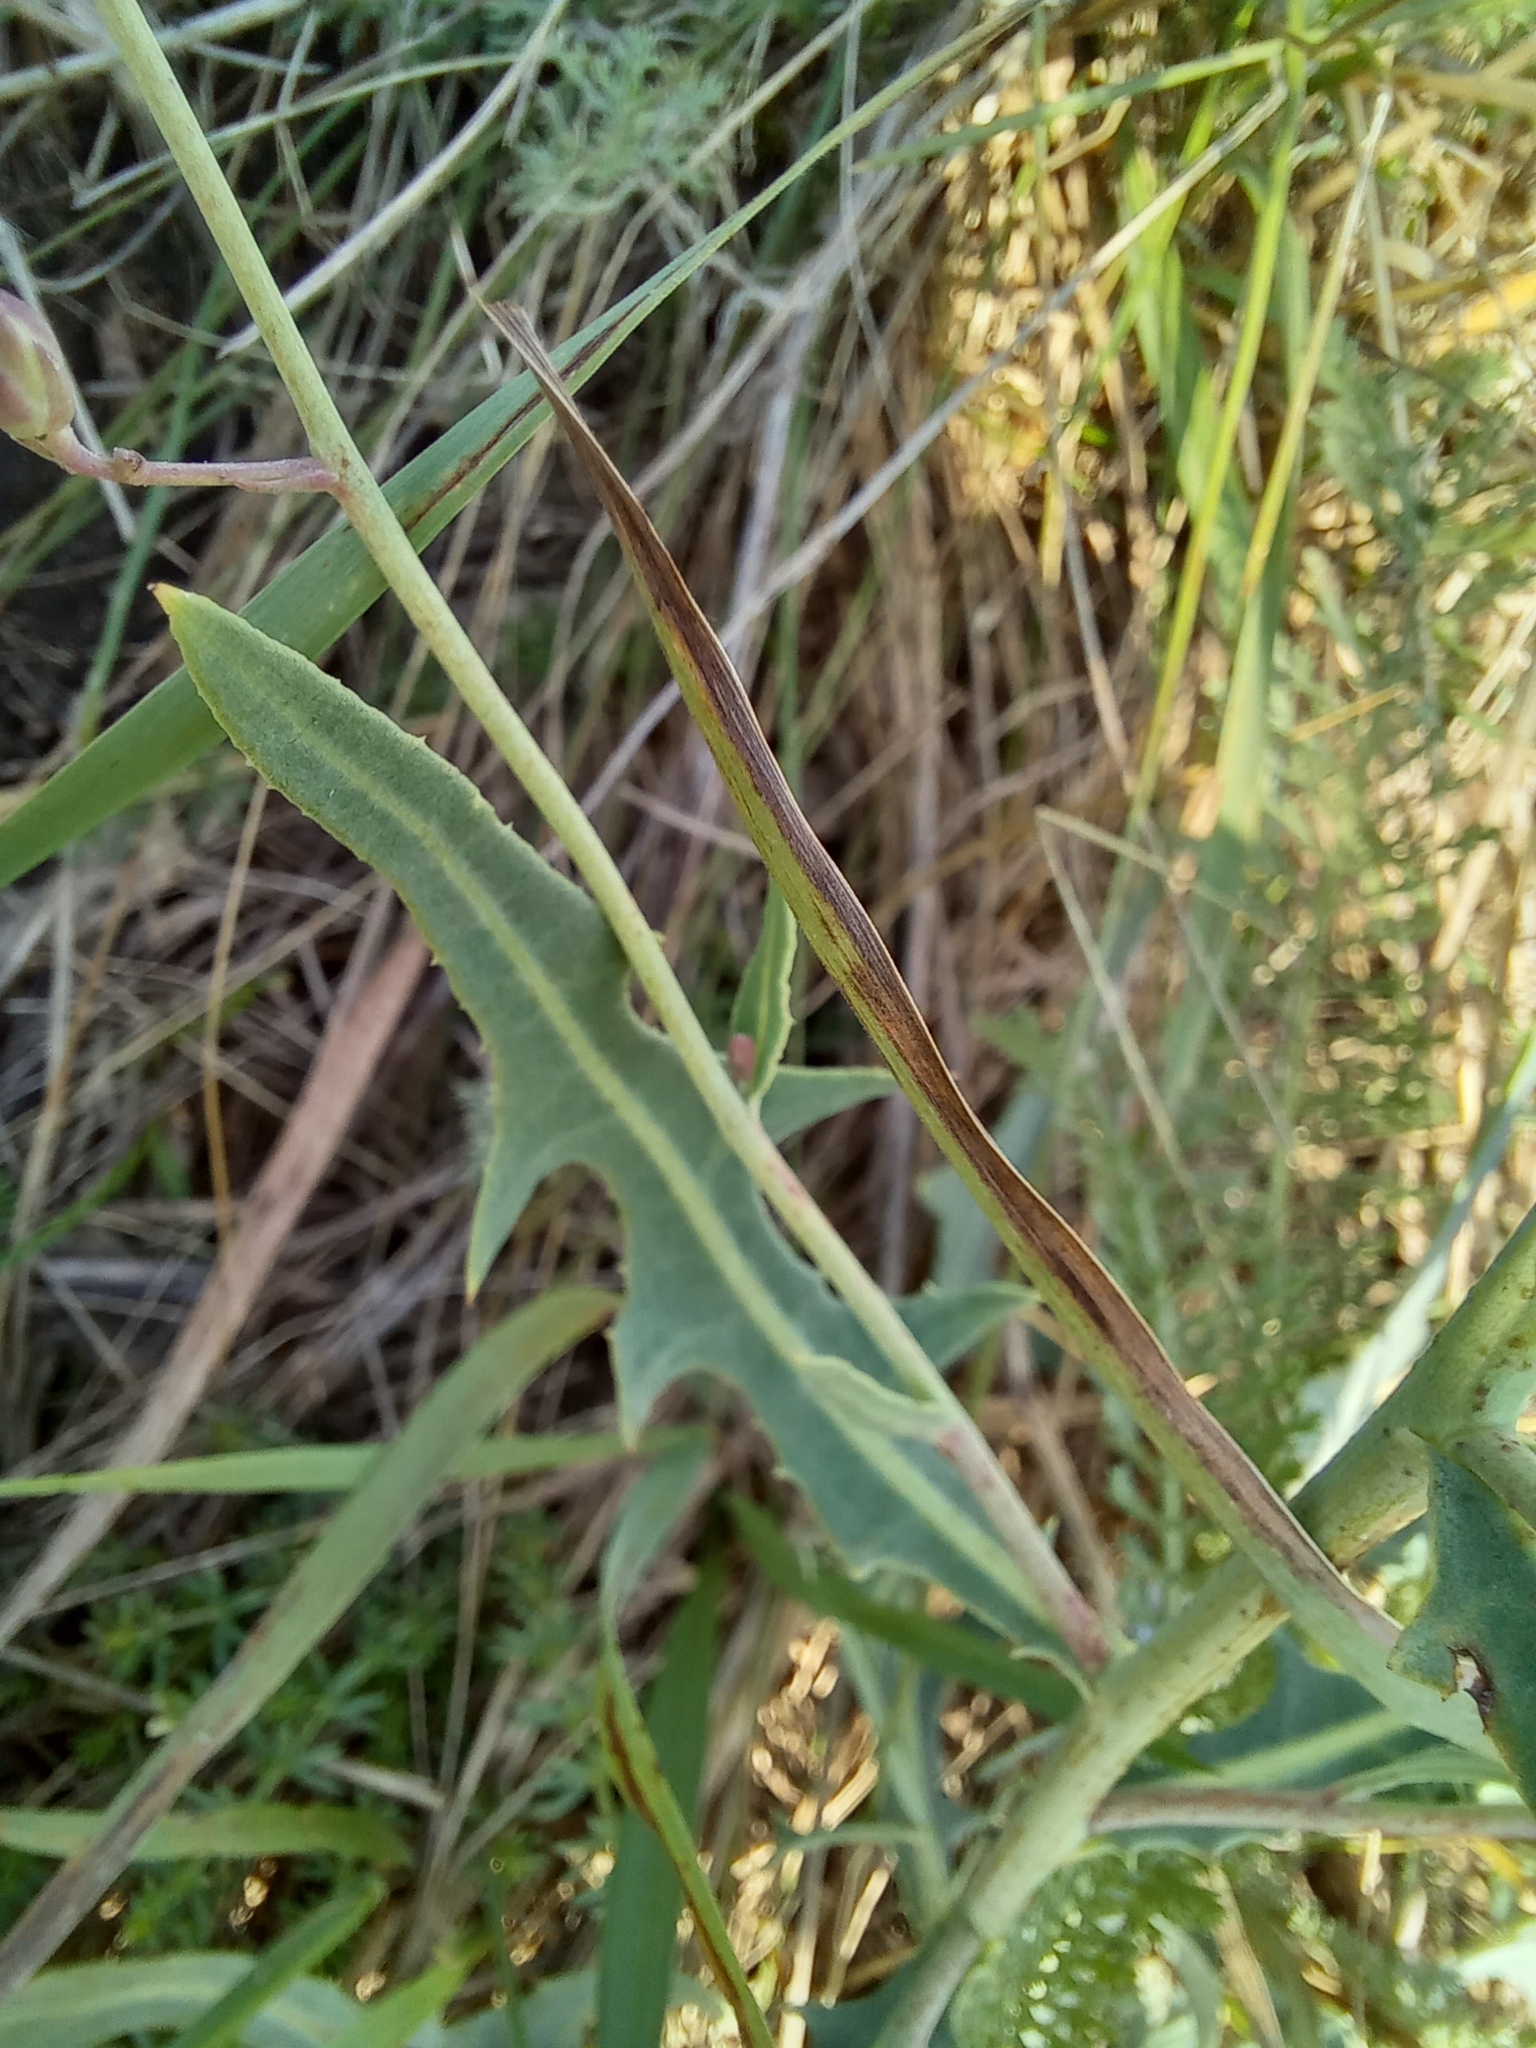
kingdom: Plantae
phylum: Tracheophyta
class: Magnoliopsida
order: Asterales
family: Asteraceae
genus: Lactuca
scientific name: Lactuca tatarica
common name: Blue lettuce
